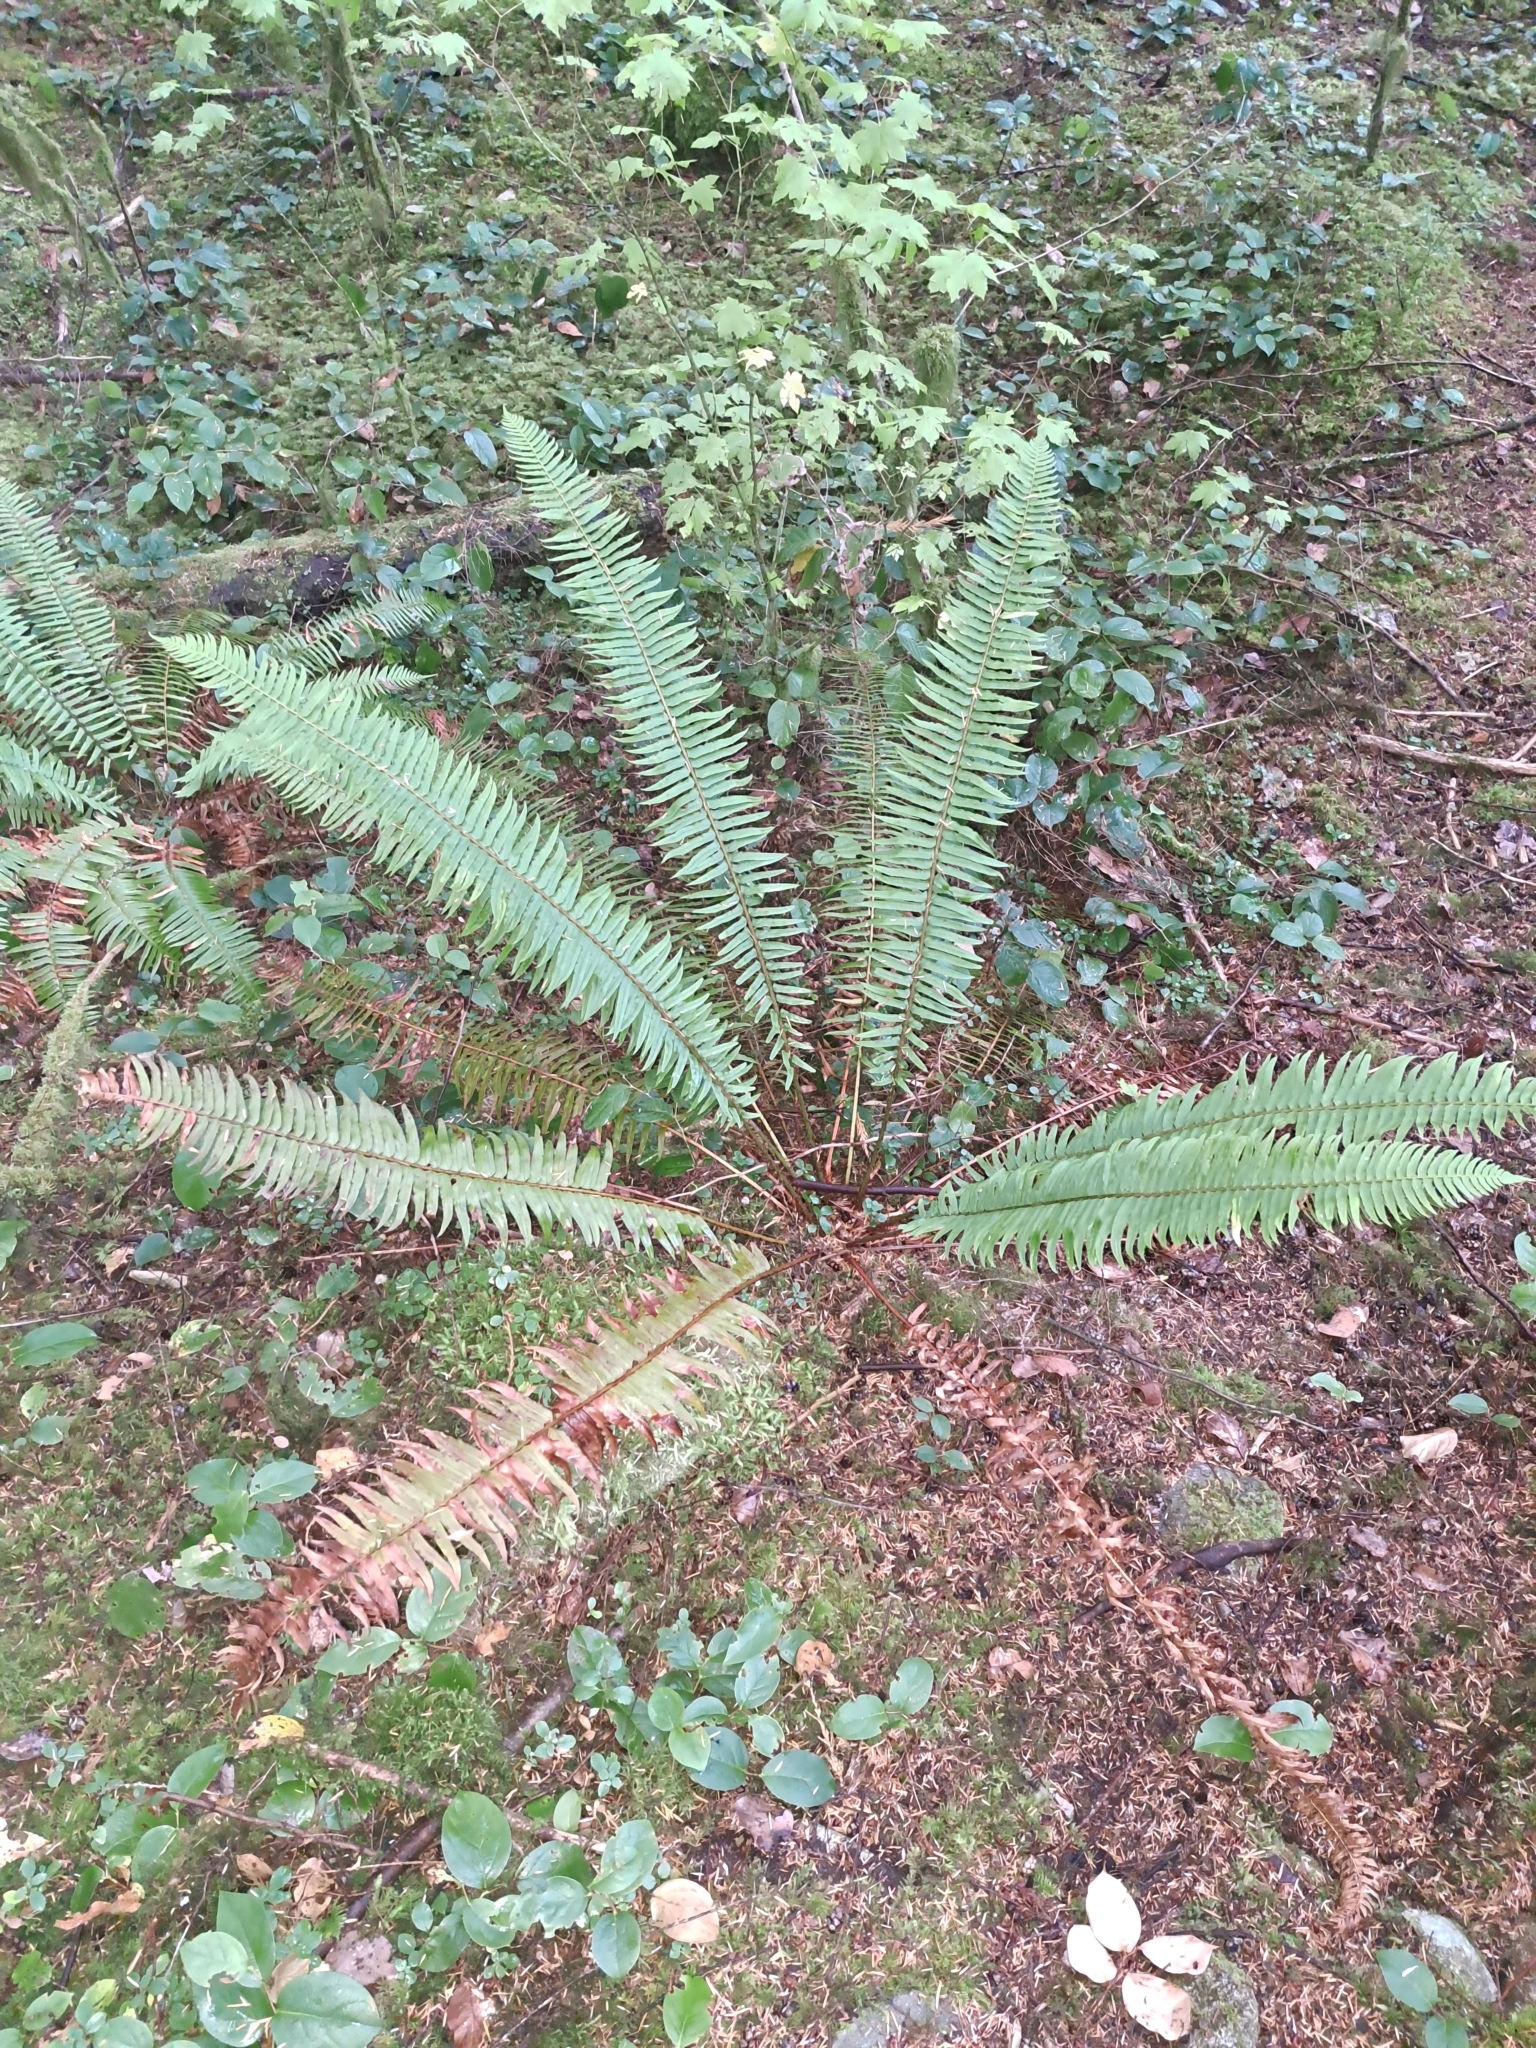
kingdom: Plantae
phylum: Tracheophyta
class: Polypodiopsida
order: Polypodiales
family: Dryopteridaceae
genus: Polystichum
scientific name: Polystichum munitum
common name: Western sword-fern
